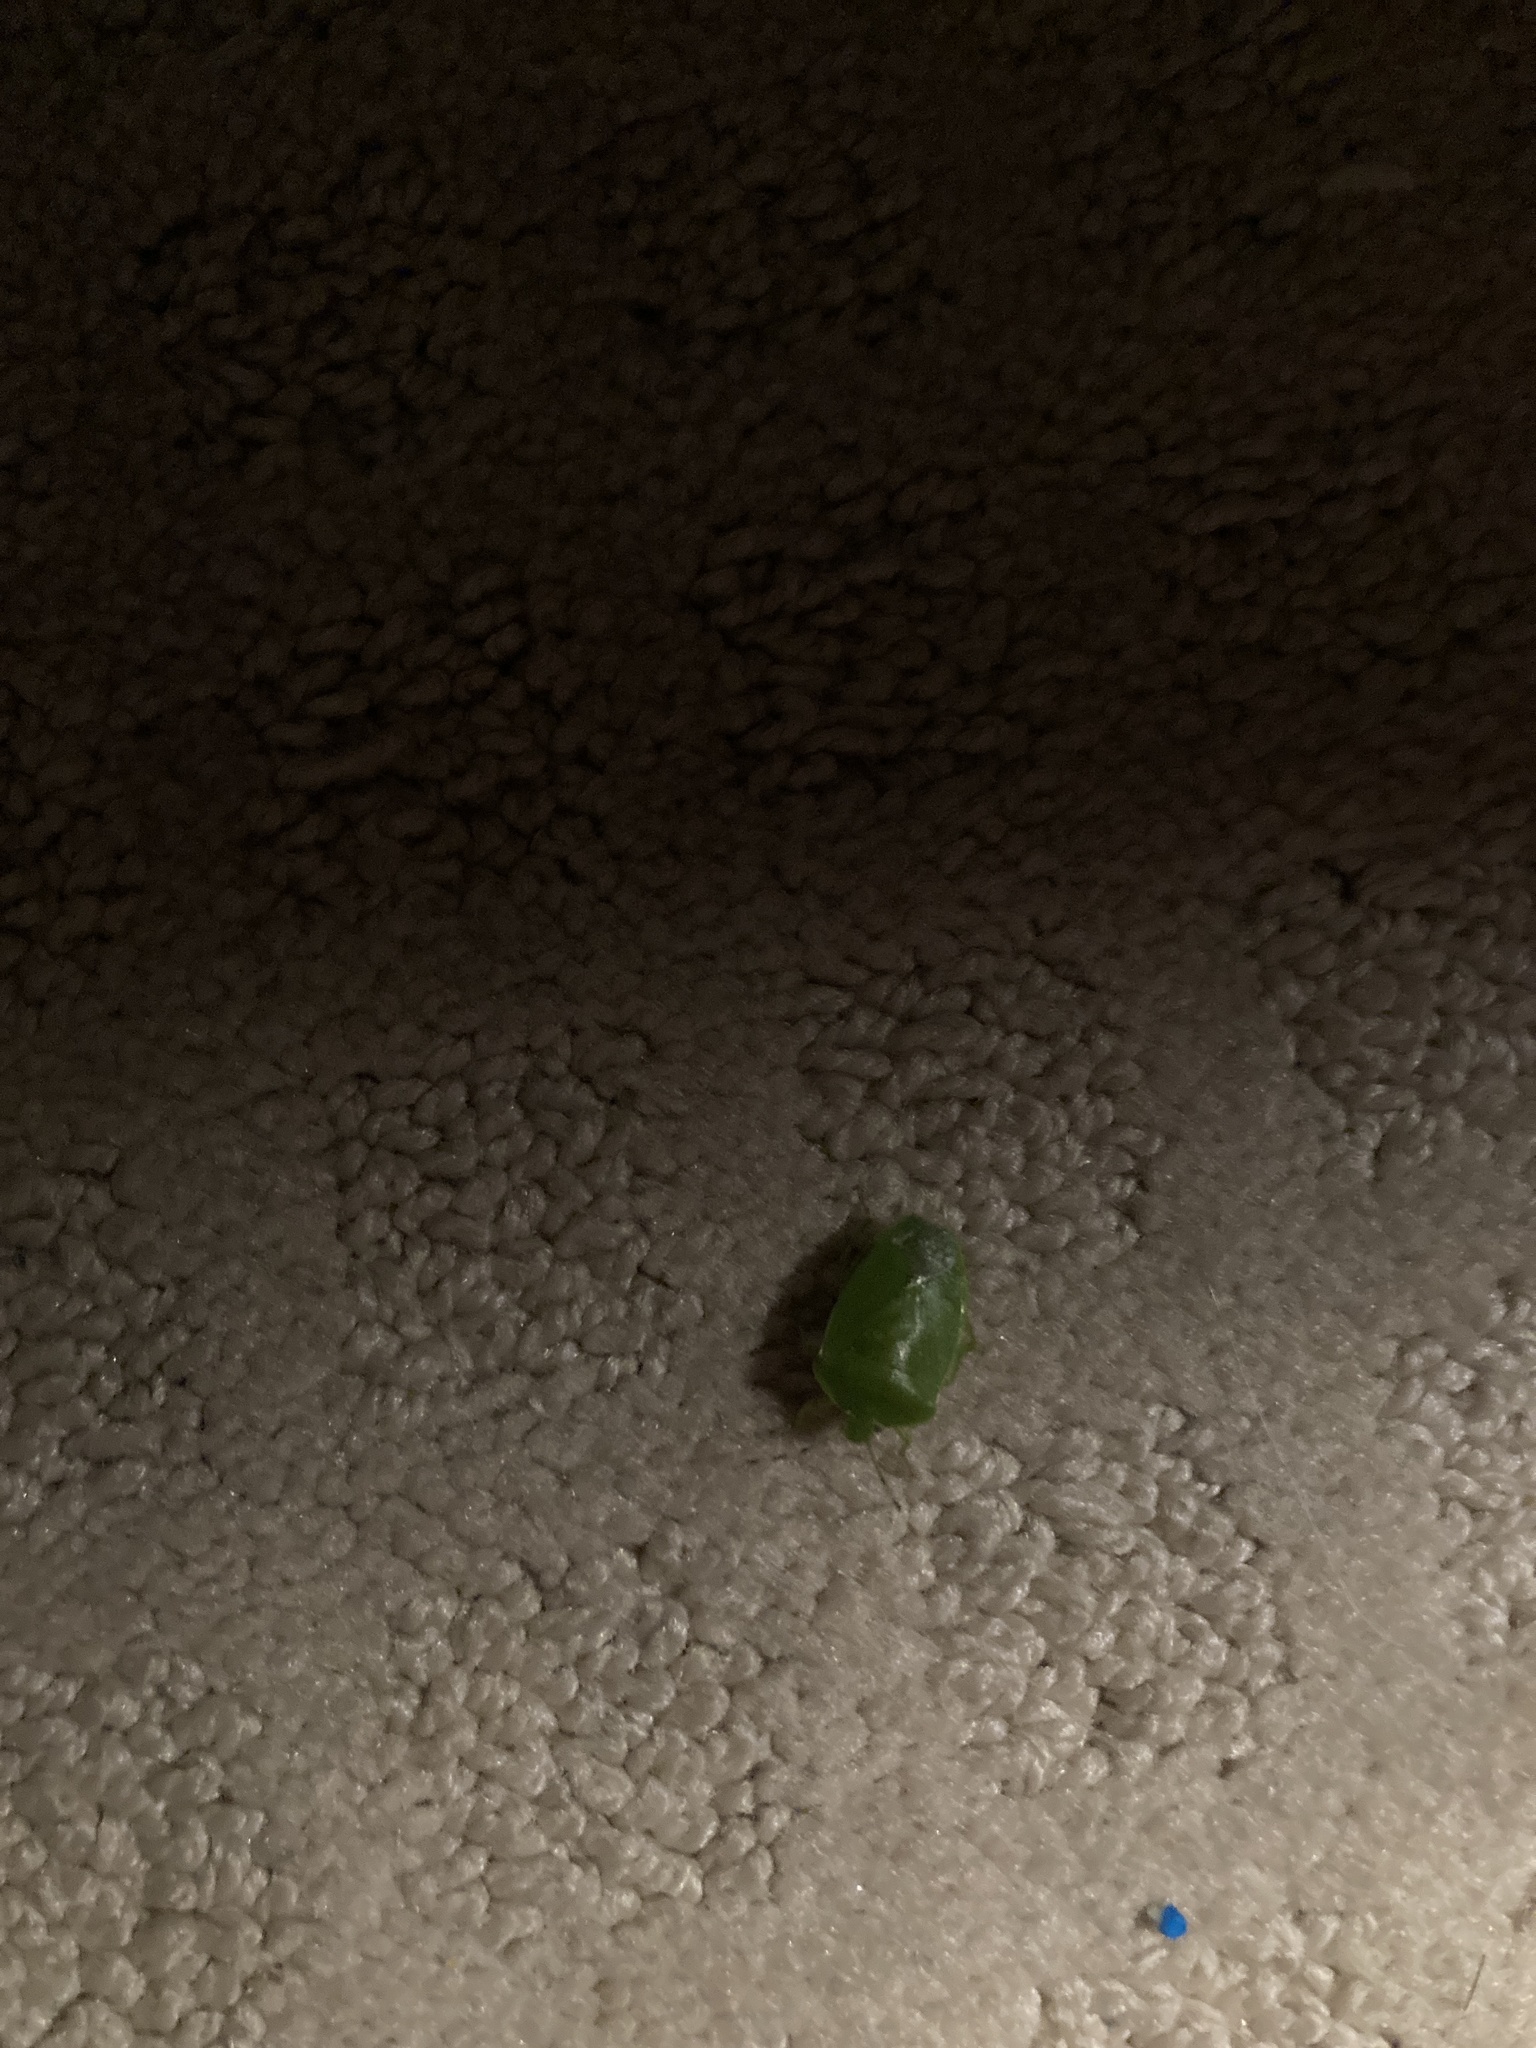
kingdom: Animalia
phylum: Arthropoda
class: Insecta
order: Hemiptera
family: Pentatomidae
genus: Chinavia
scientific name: Chinavia hilaris
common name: Green stink bug
